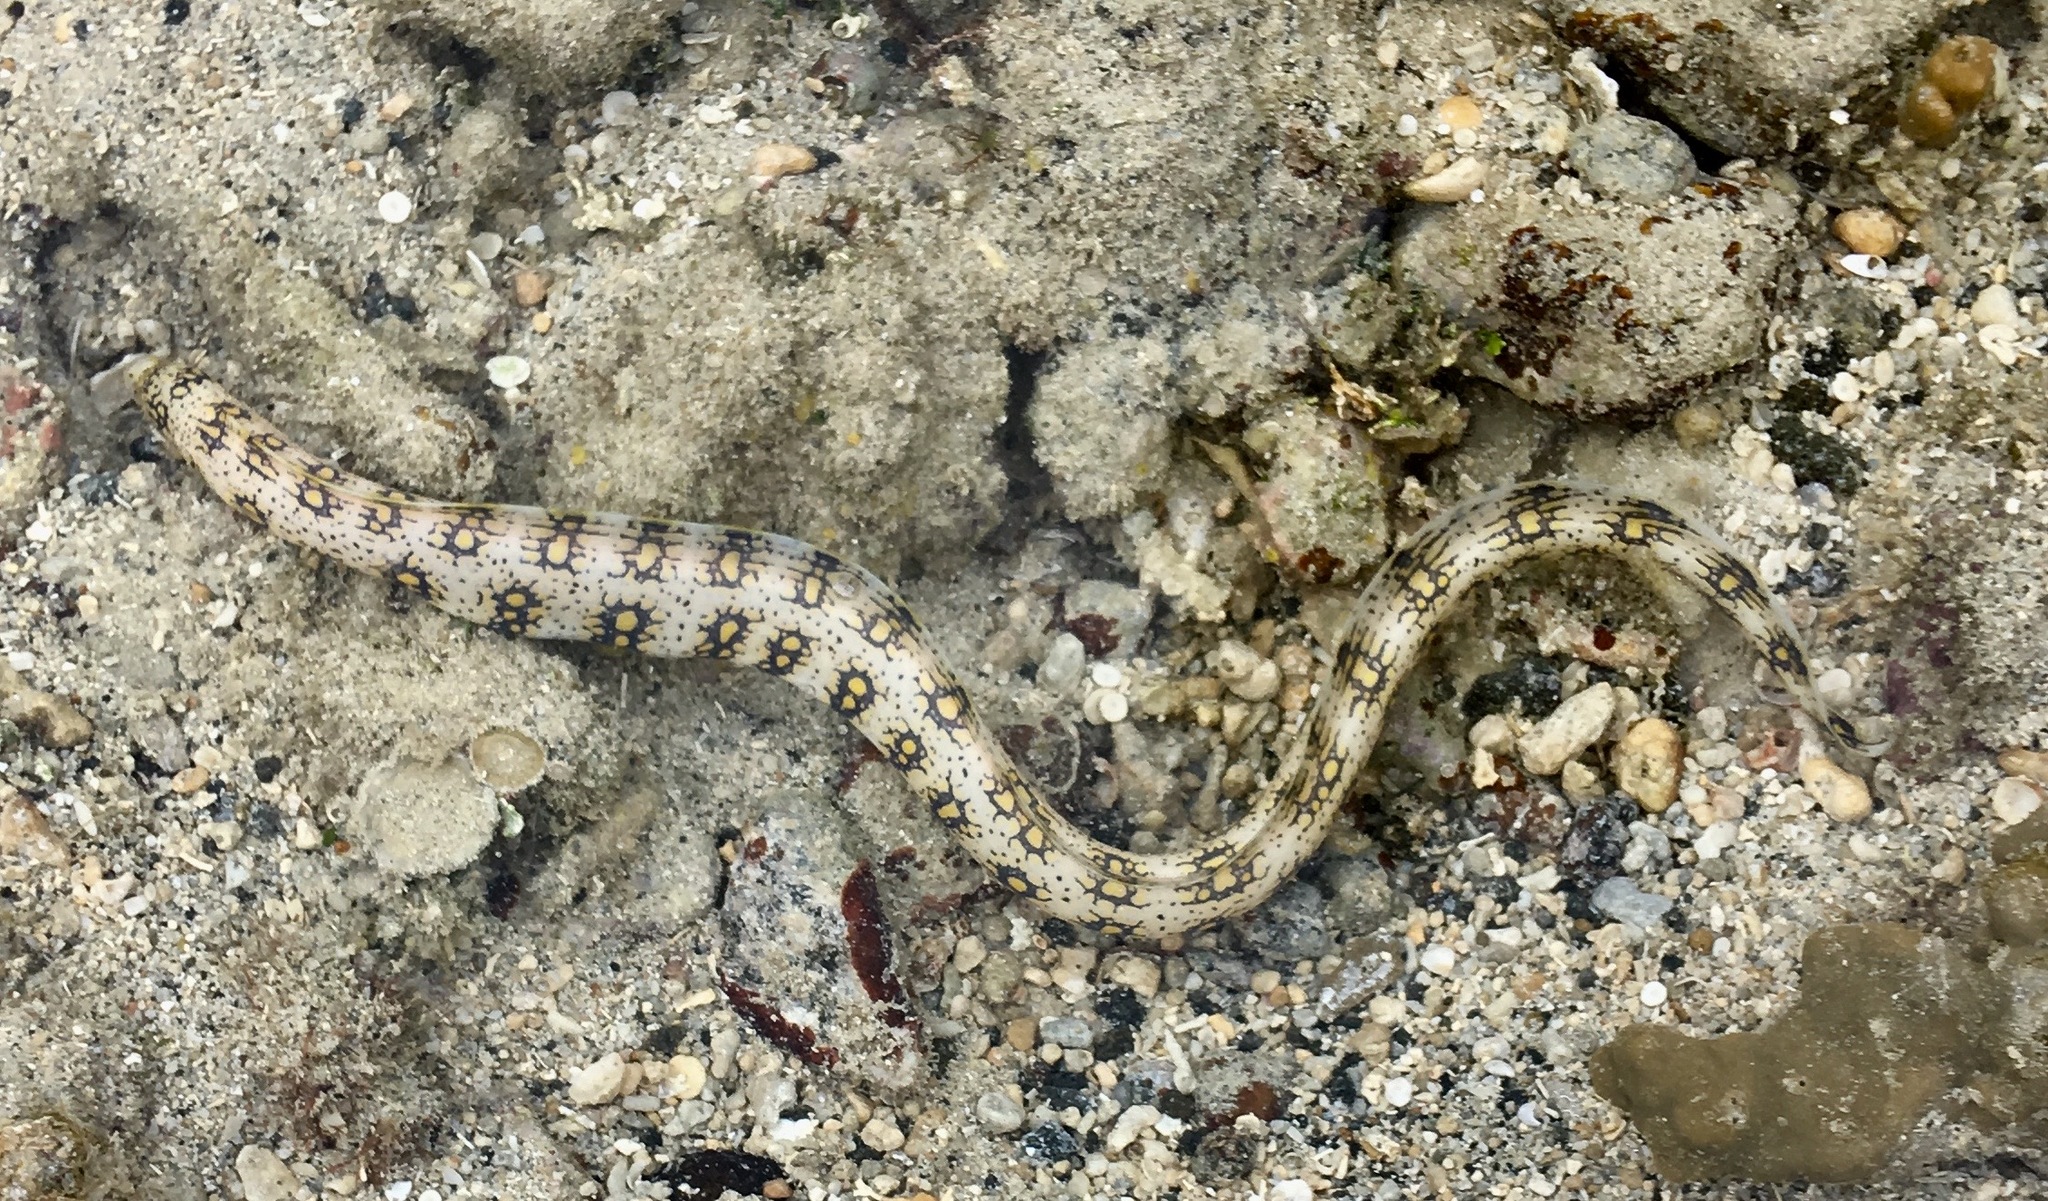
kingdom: Animalia
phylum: Chordata
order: Anguilliformes
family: Muraenidae
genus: Echidna
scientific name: Echidna nebulosa
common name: Snowflake moray
